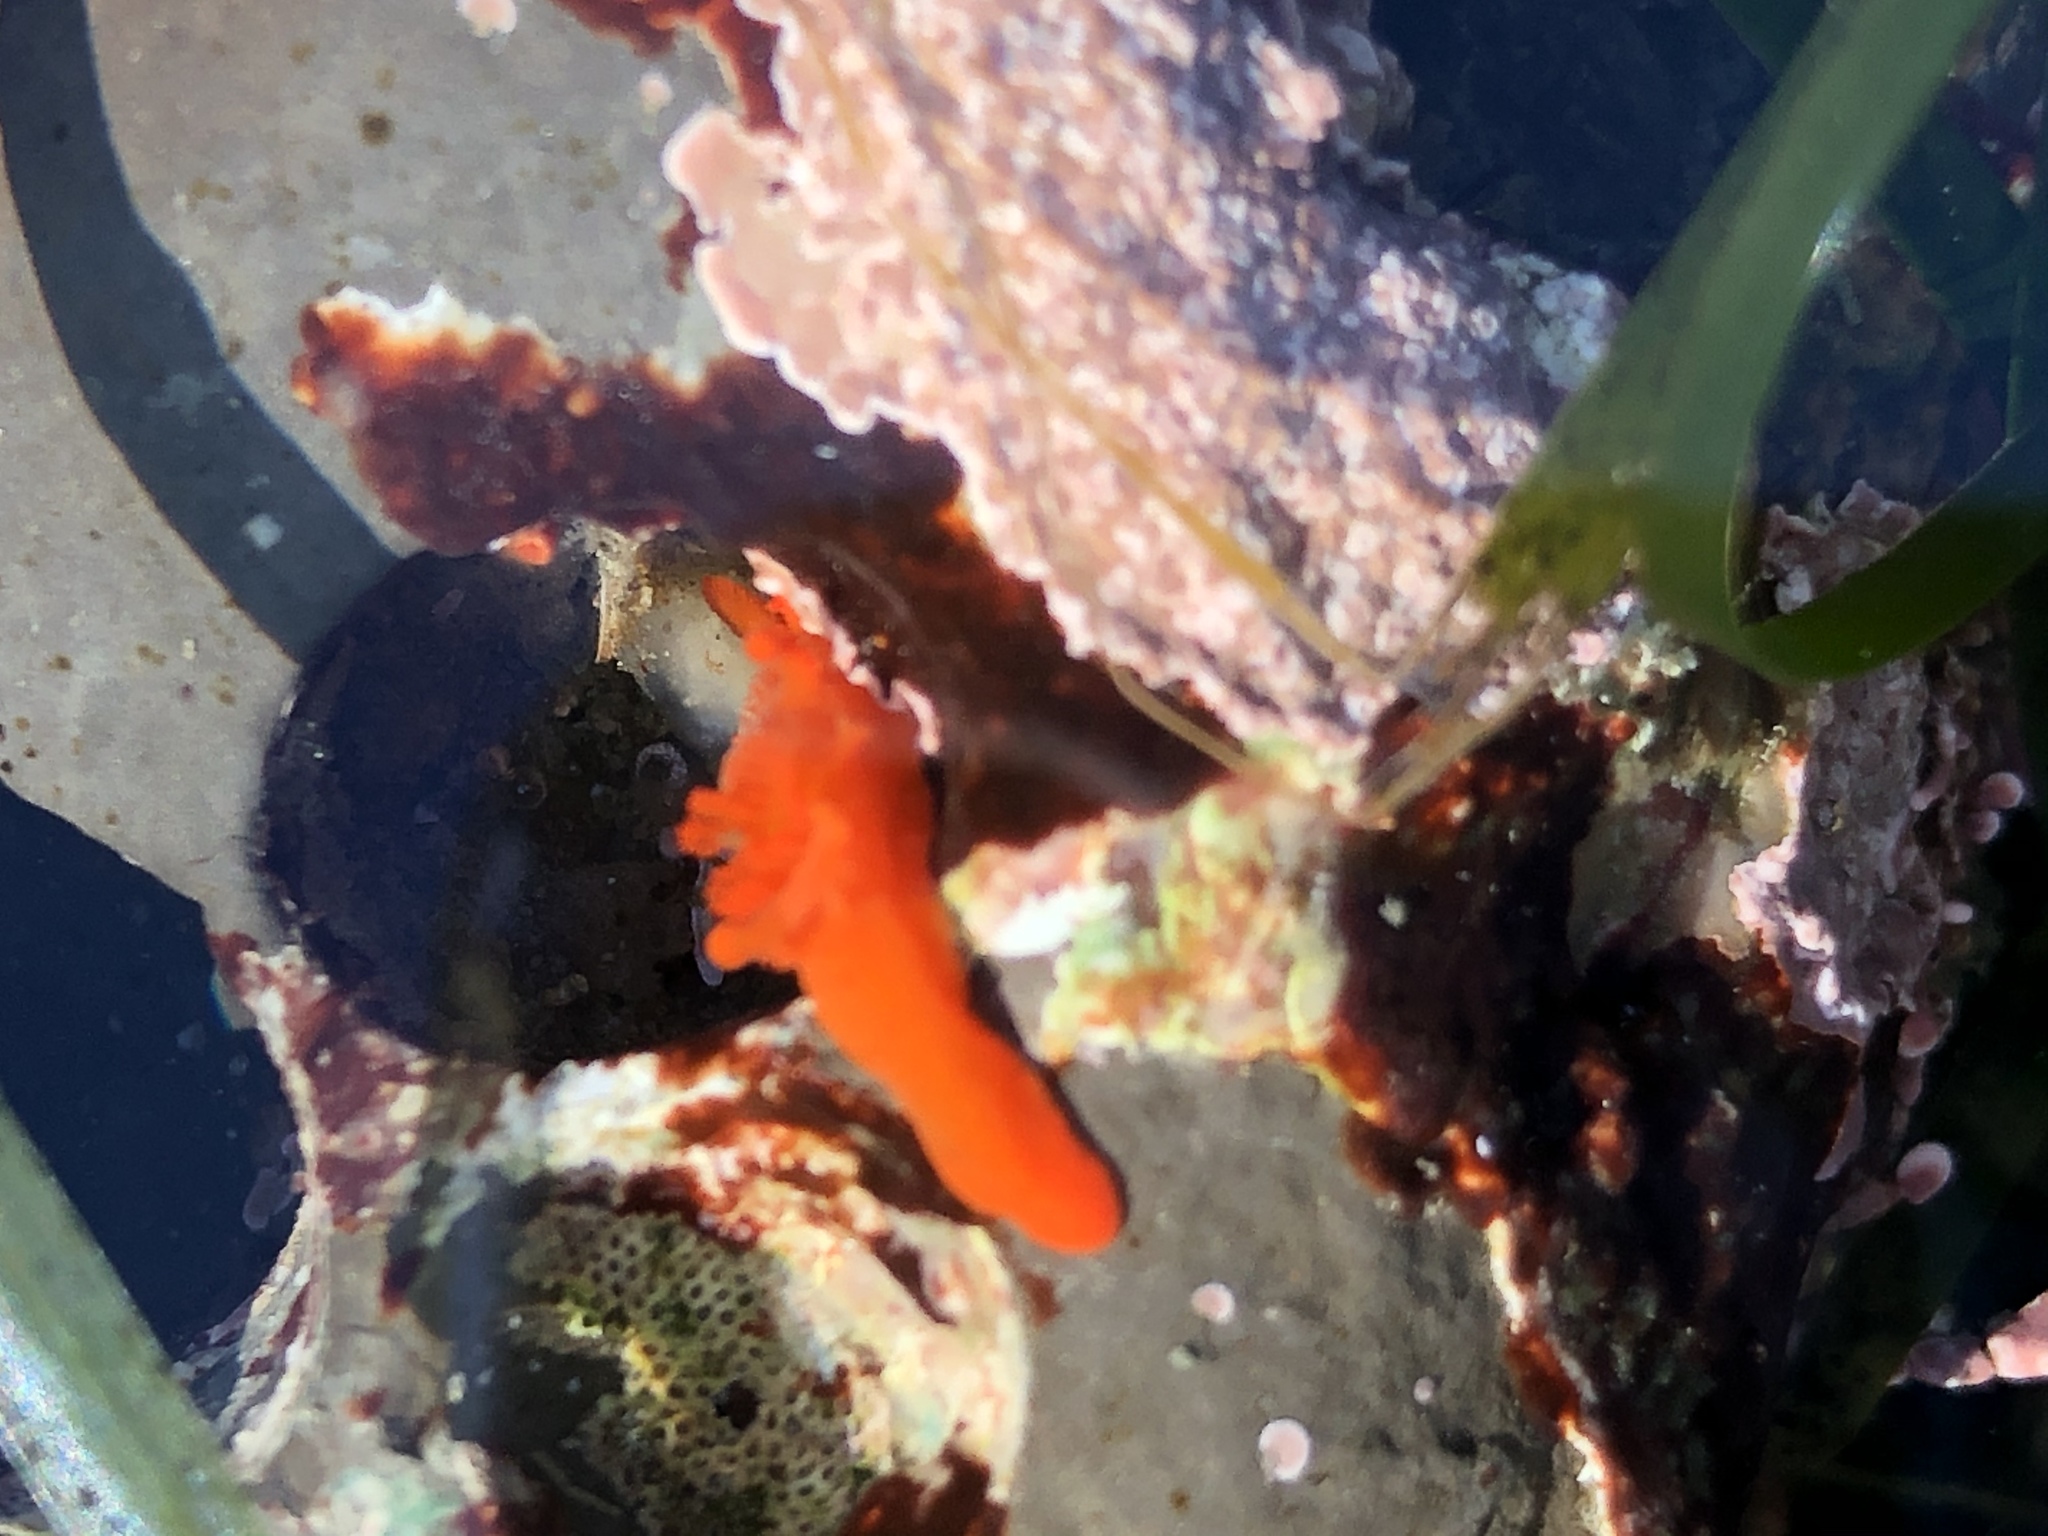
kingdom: Animalia
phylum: Mollusca
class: Gastropoda
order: Nudibranchia
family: Polyceridae
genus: Triopha
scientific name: Triopha maculata
